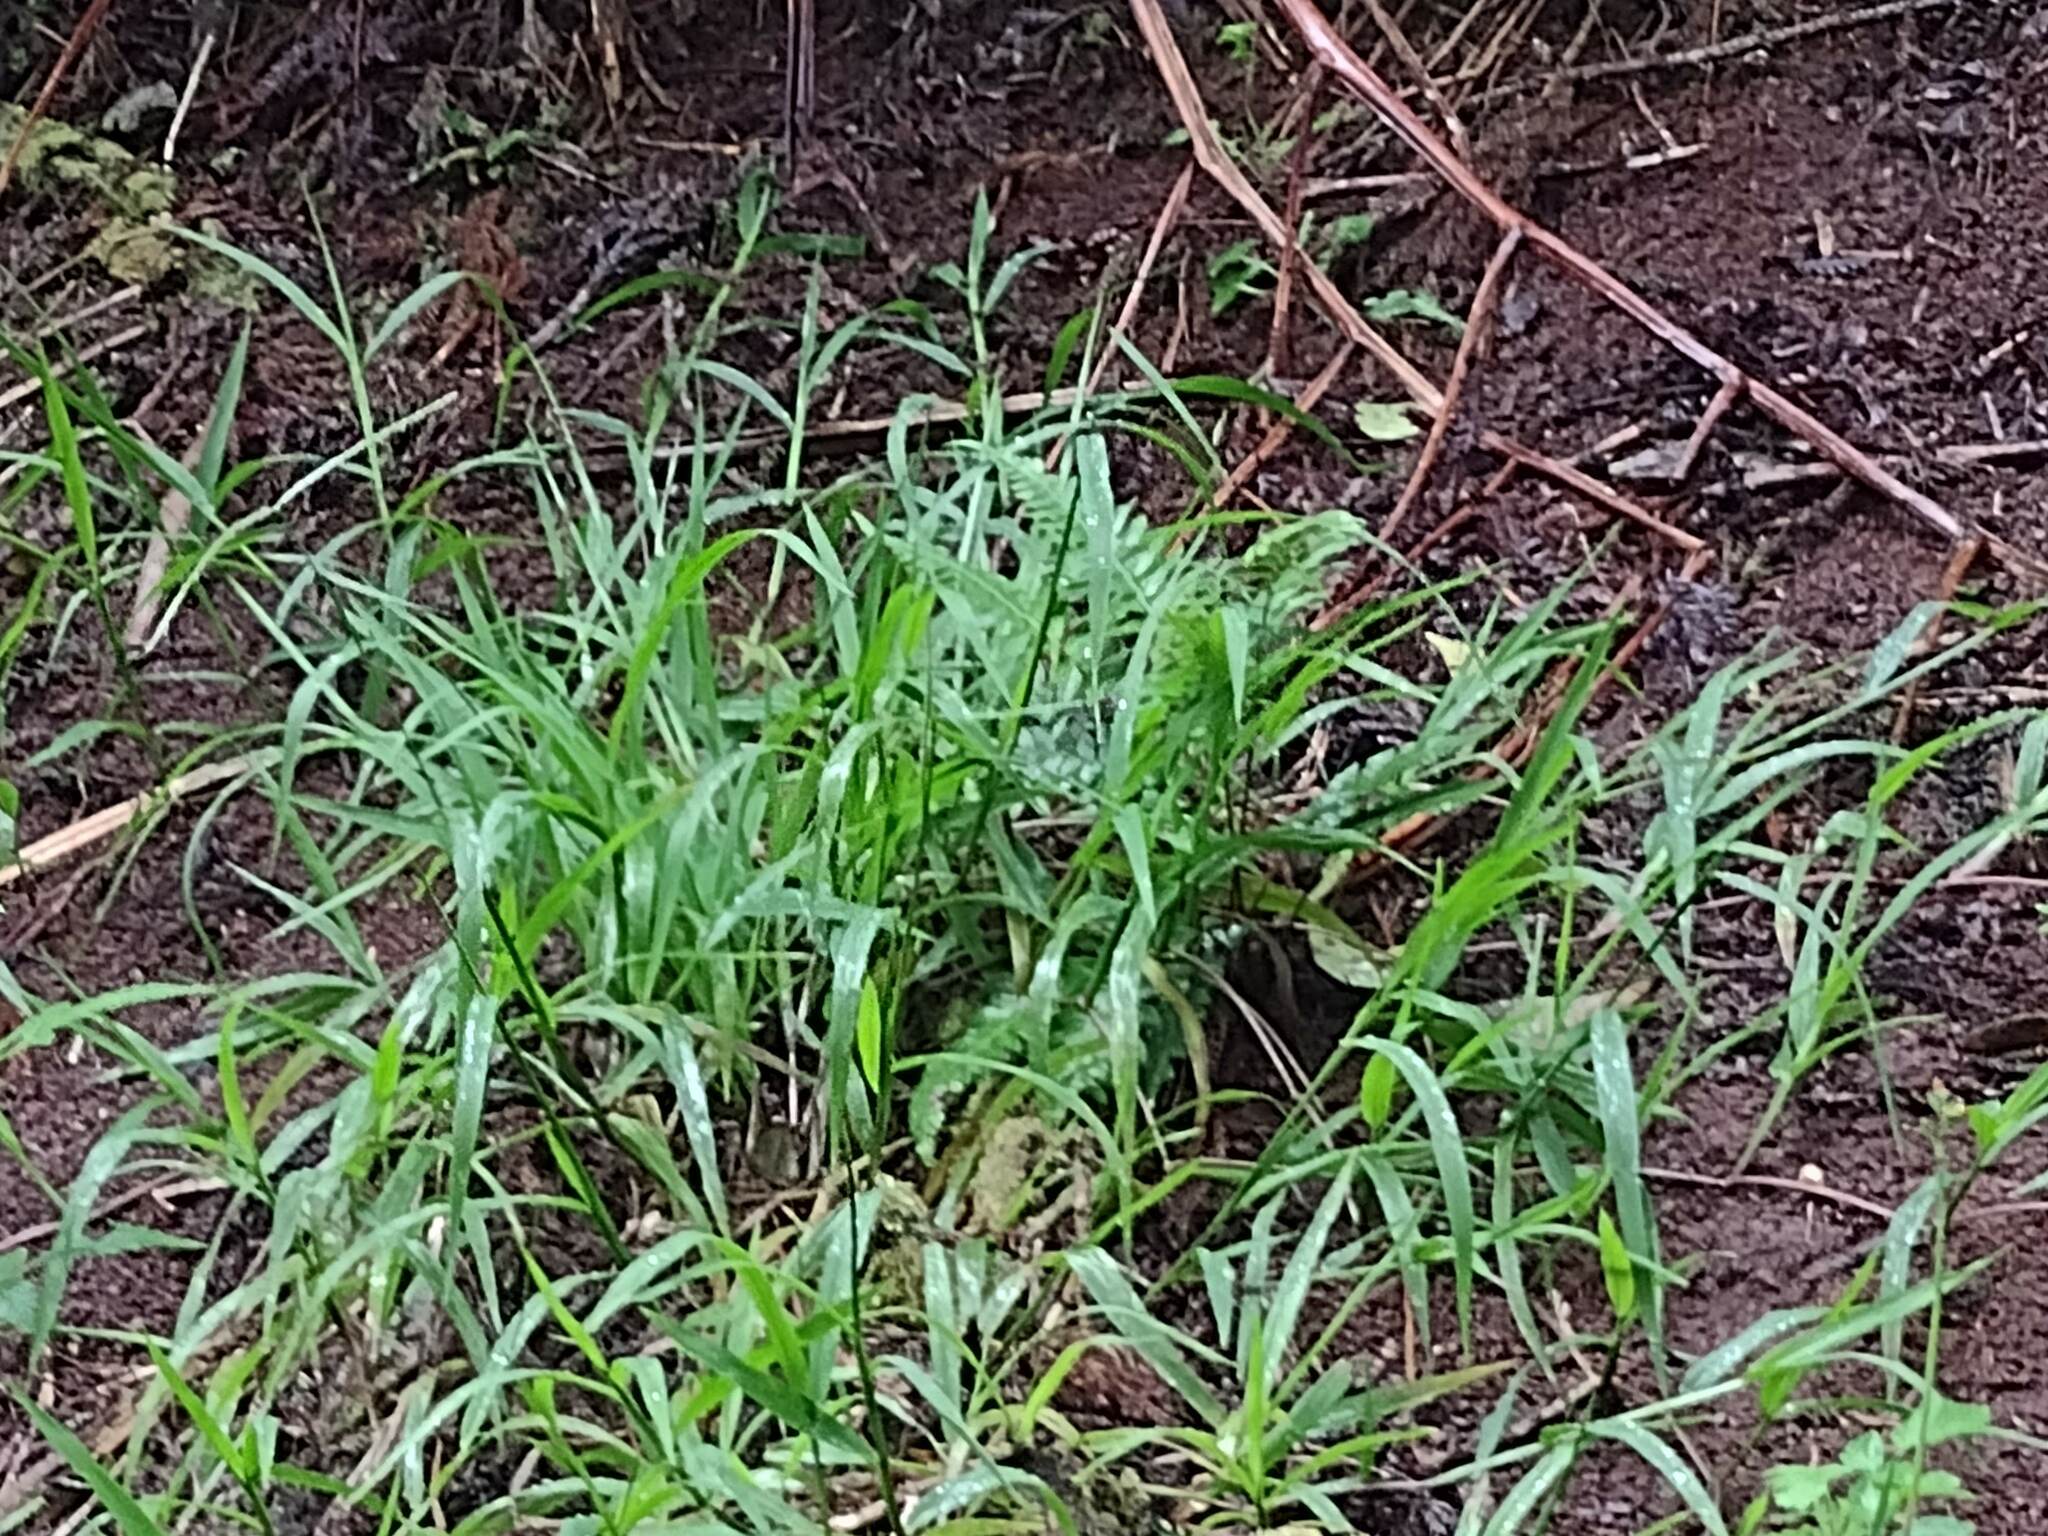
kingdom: Plantae
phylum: Tracheophyta
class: Liliopsida
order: Poales
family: Poaceae
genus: Paspalum
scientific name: Paspalum conjugatum
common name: Hilograss
